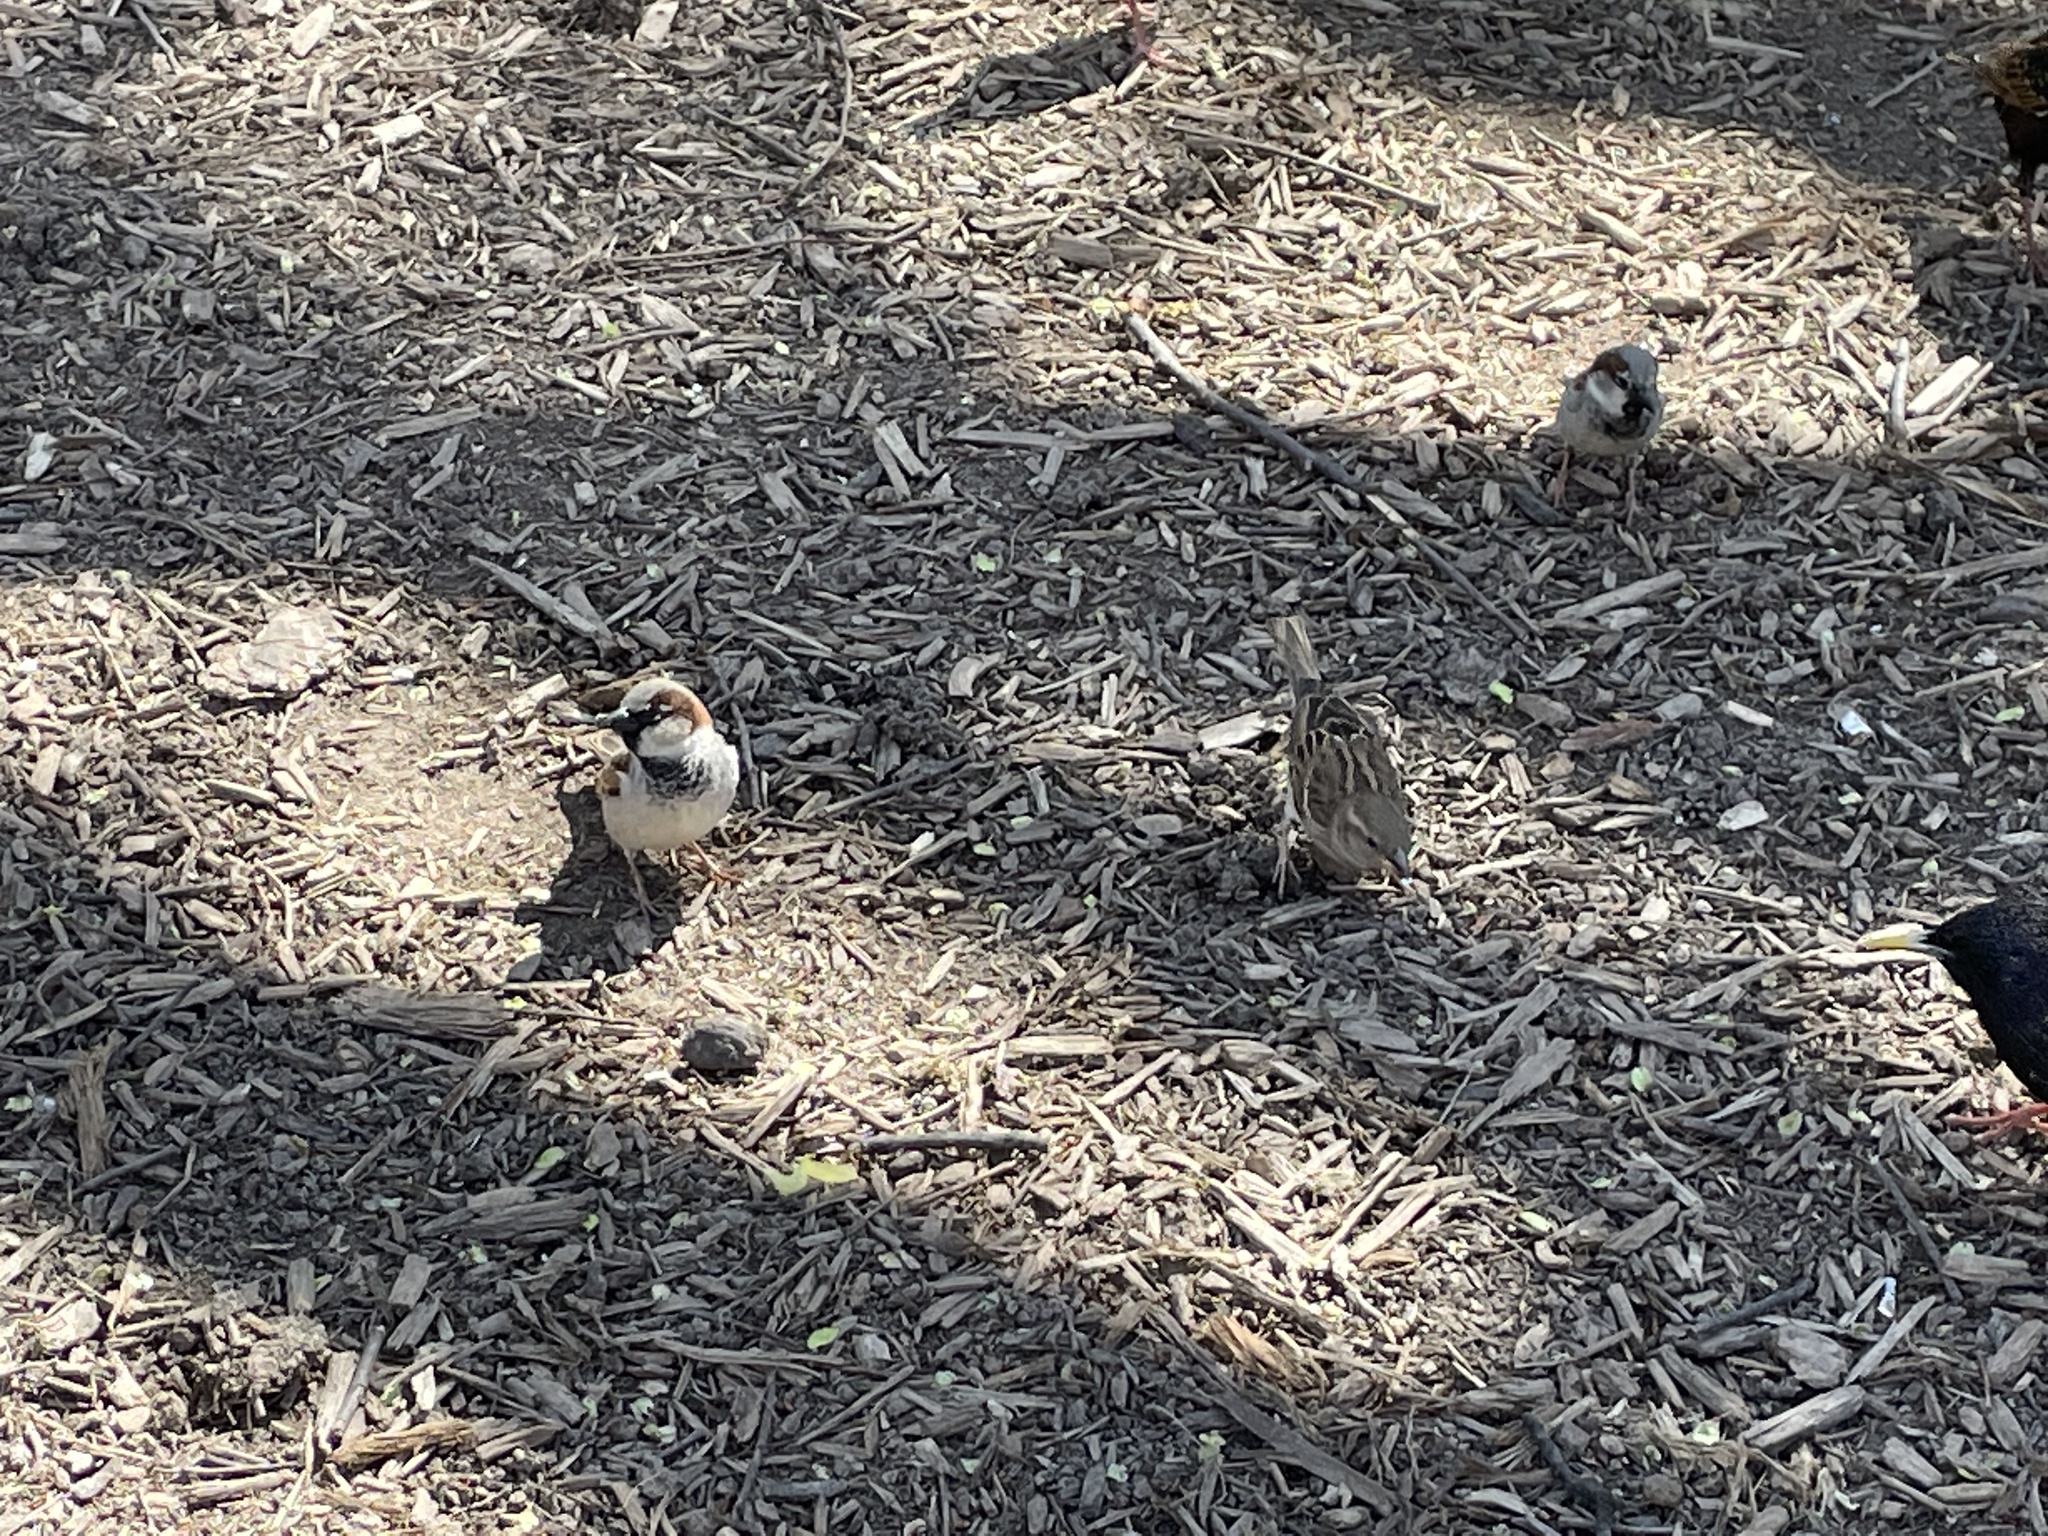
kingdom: Animalia
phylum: Chordata
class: Aves
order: Passeriformes
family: Passeridae
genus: Passer
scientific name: Passer domesticus
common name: House sparrow
